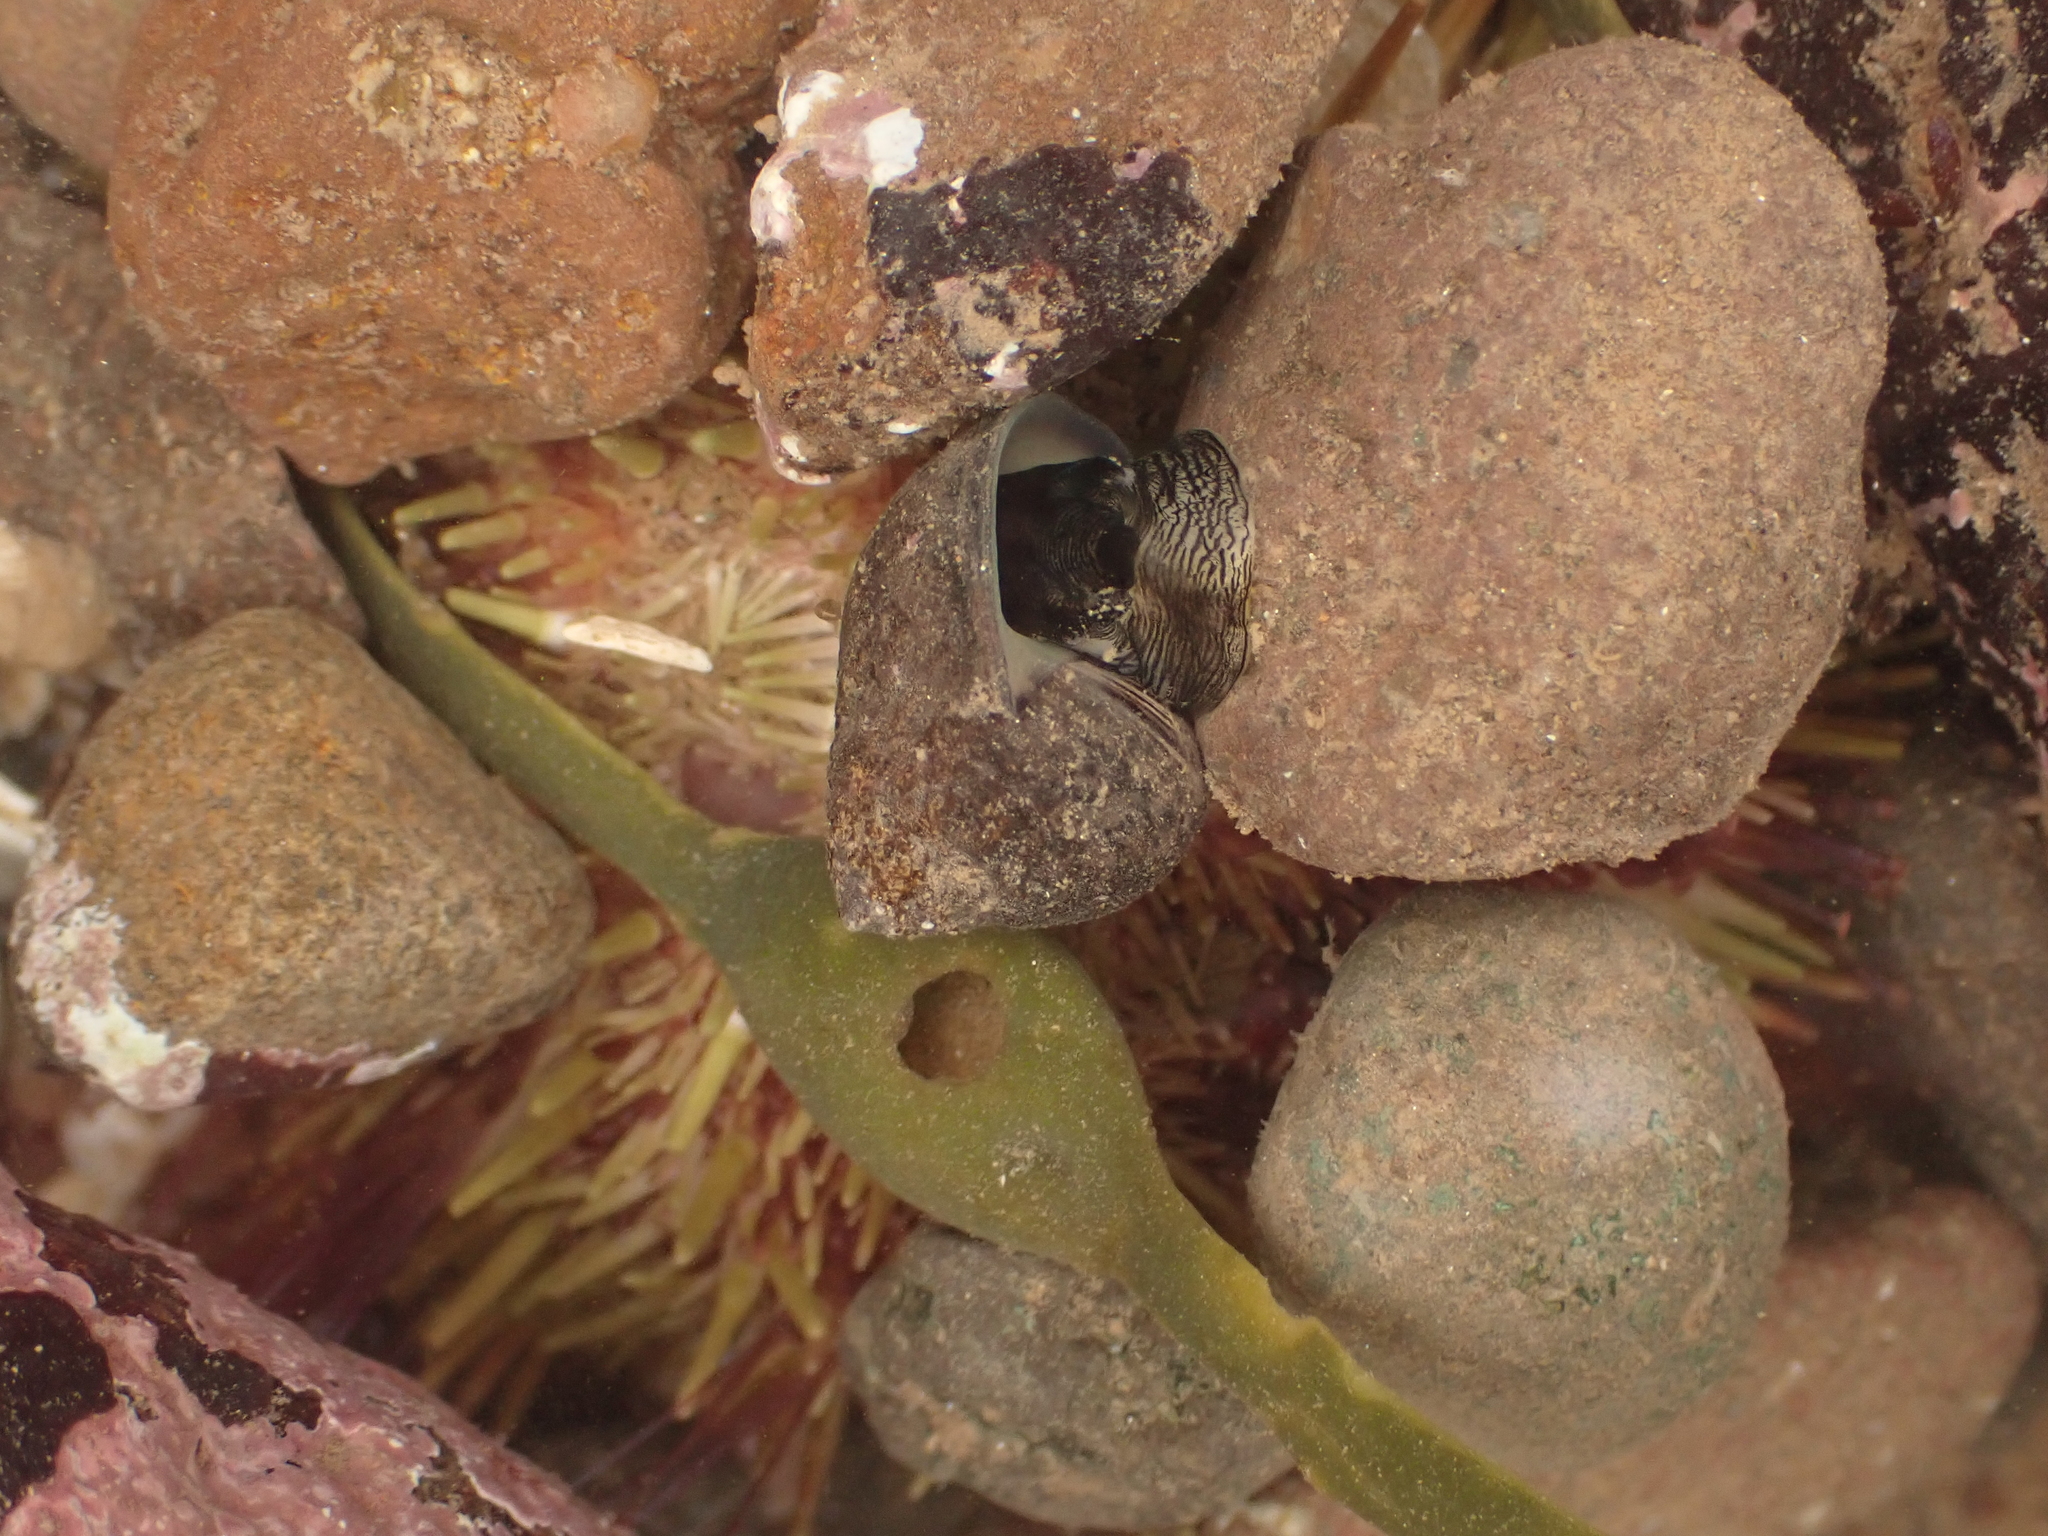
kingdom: Animalia
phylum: Mollusca
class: Gastropoda
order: Littorinimorpha
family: Littorinidae
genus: Littorina
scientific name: Littorina littorea
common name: Common periwinkle
